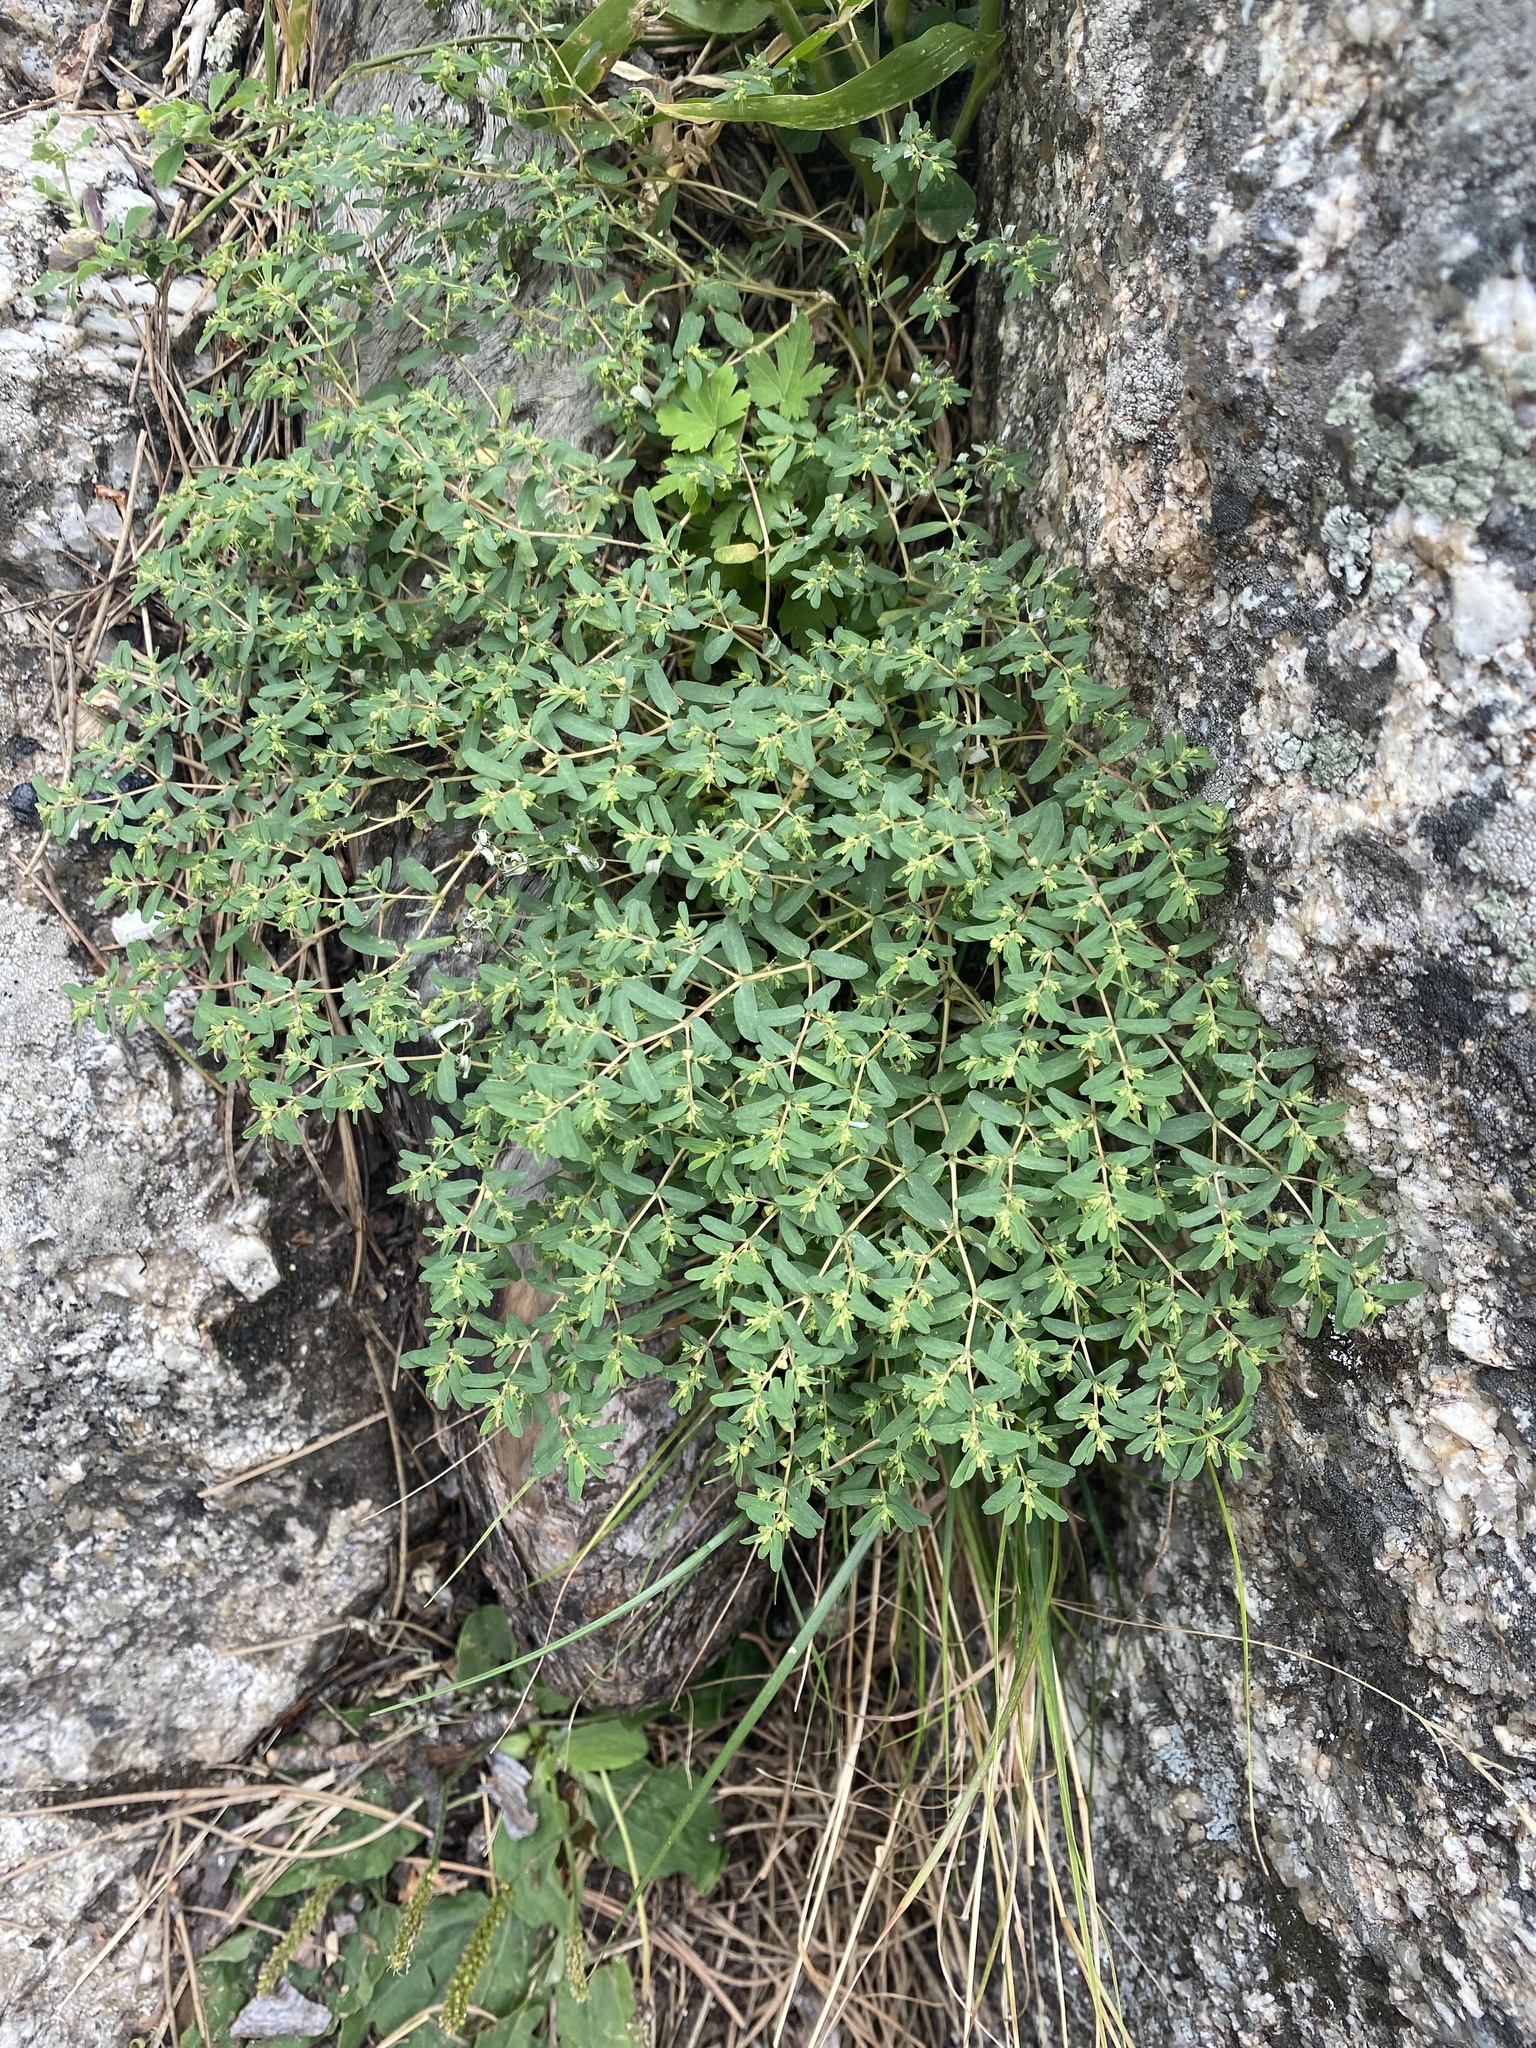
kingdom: Plantae
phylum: Tracheophyta
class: Magnoliopsida
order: Malpighiales
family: Euphorbiaceae
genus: Euphorbia
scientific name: Euphorbia glyptosperma
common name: Corrugate-seeded spurge
